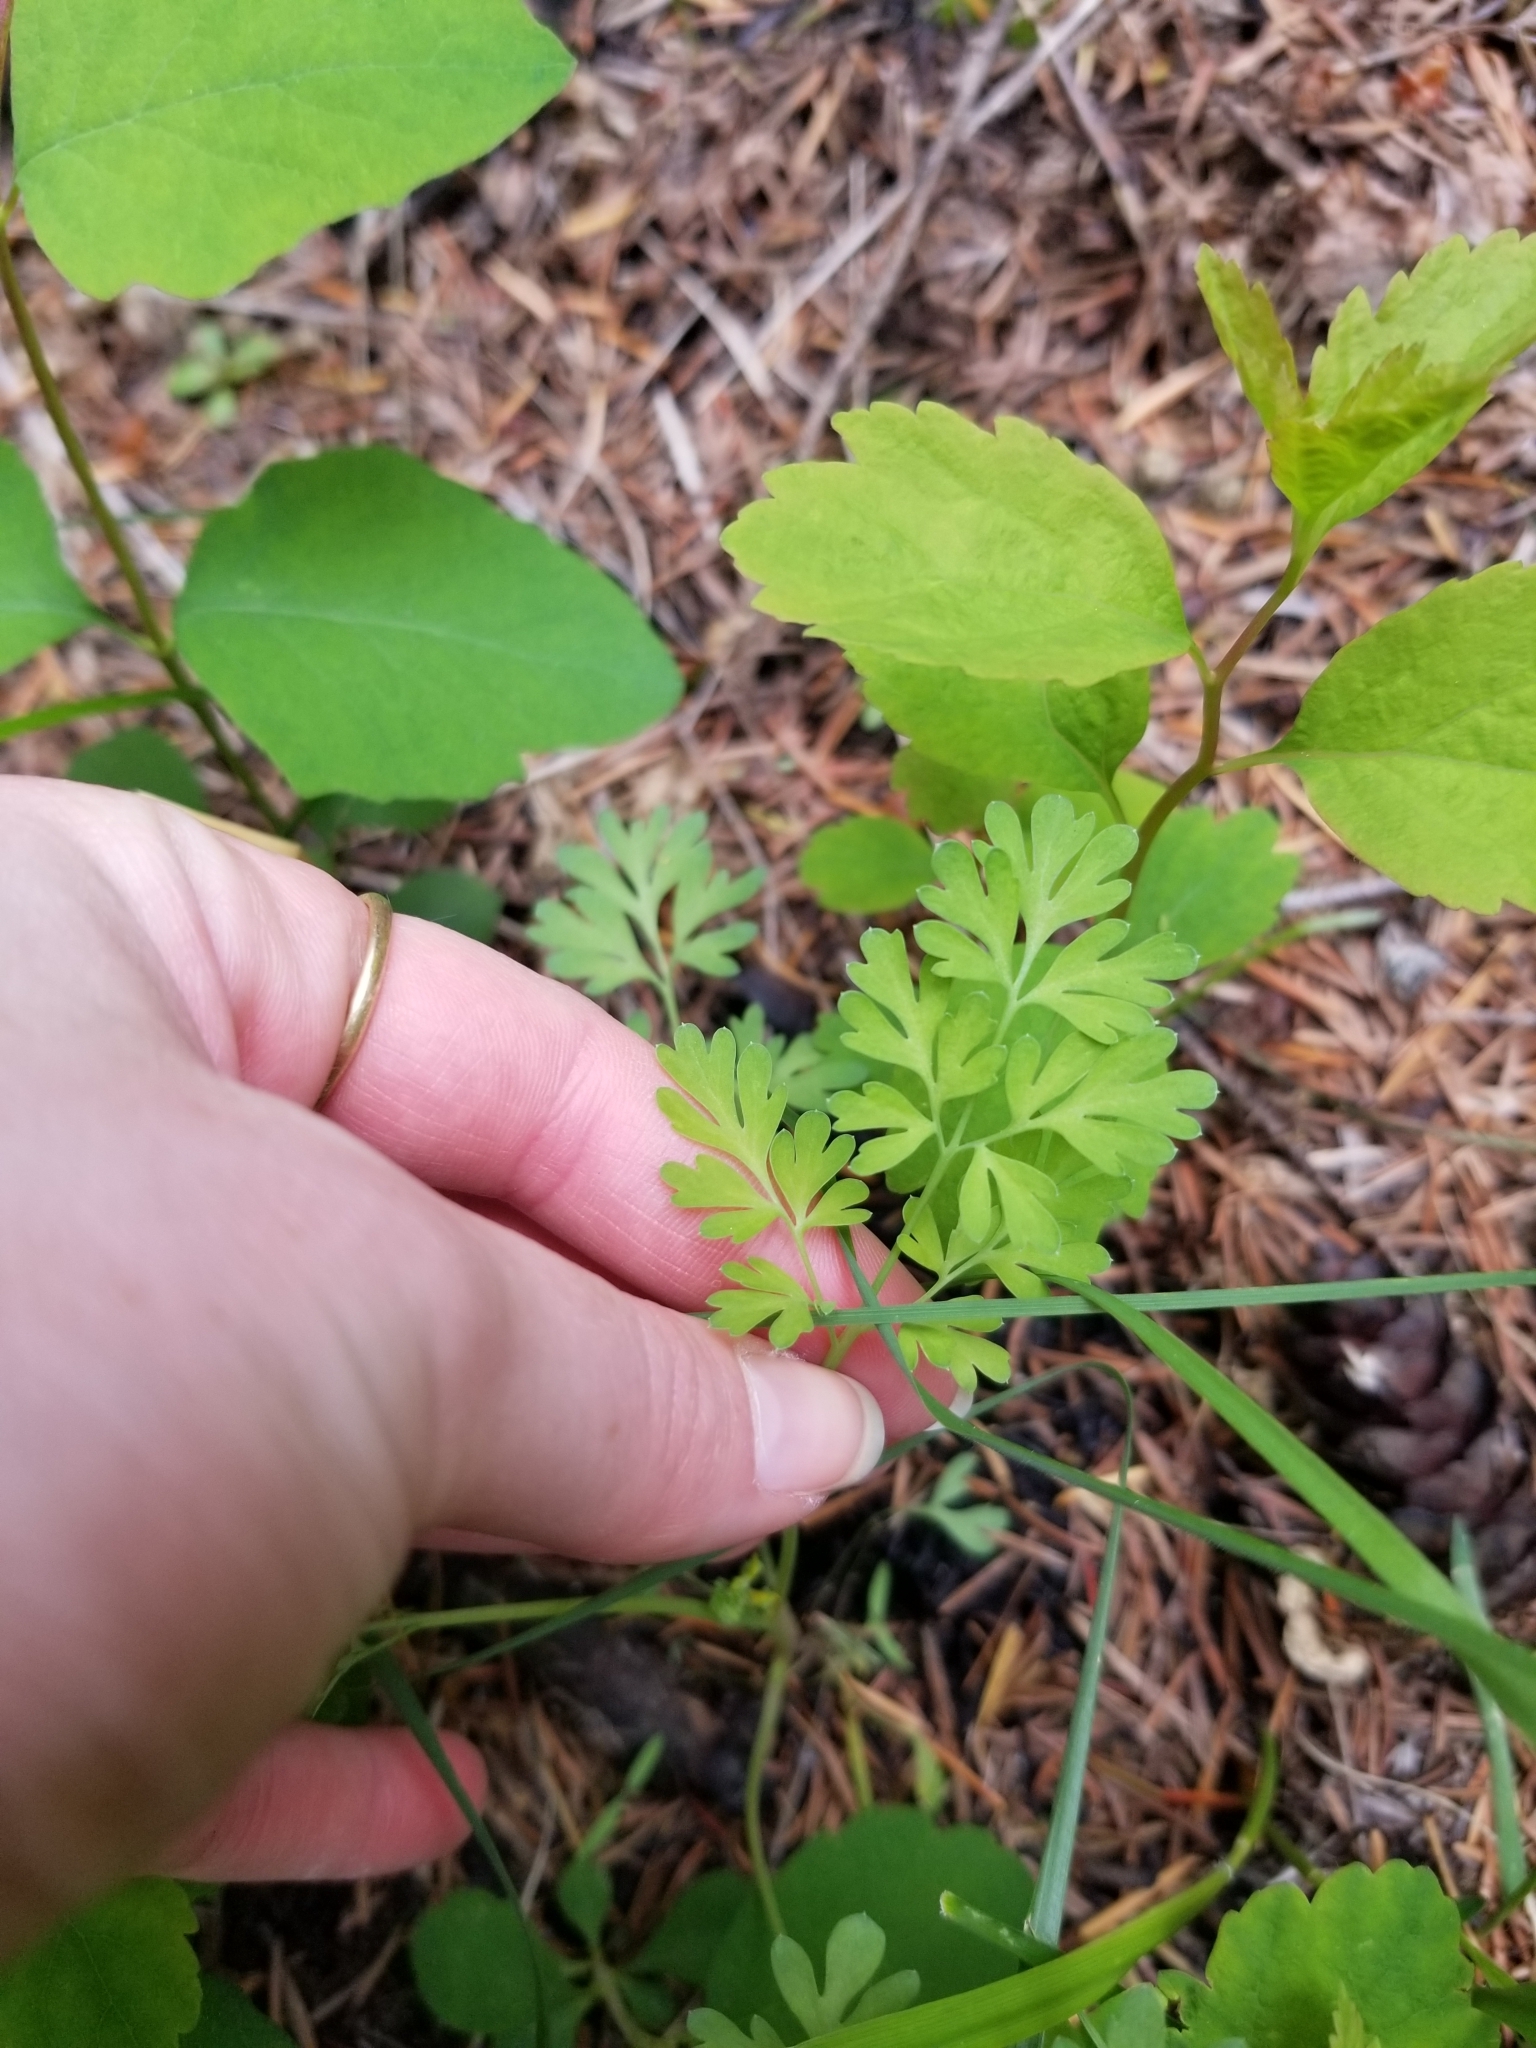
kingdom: Plantae
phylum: Tracheophyta
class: Magnoliopsida
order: Ranunculales
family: Papaveraceae
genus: Corydalis
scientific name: Corydalis aurea
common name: Golden corydalis
